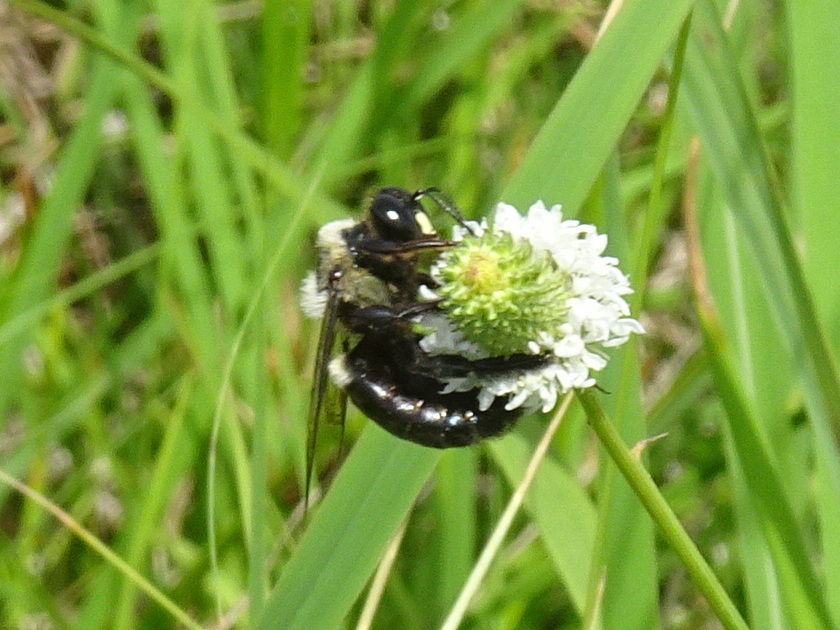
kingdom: Animalia
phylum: Arthropoda
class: Insecta
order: Hymenoptera
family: Apidae
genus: Xylocopa
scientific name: Xylocopa virginica
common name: Carpenter bee
